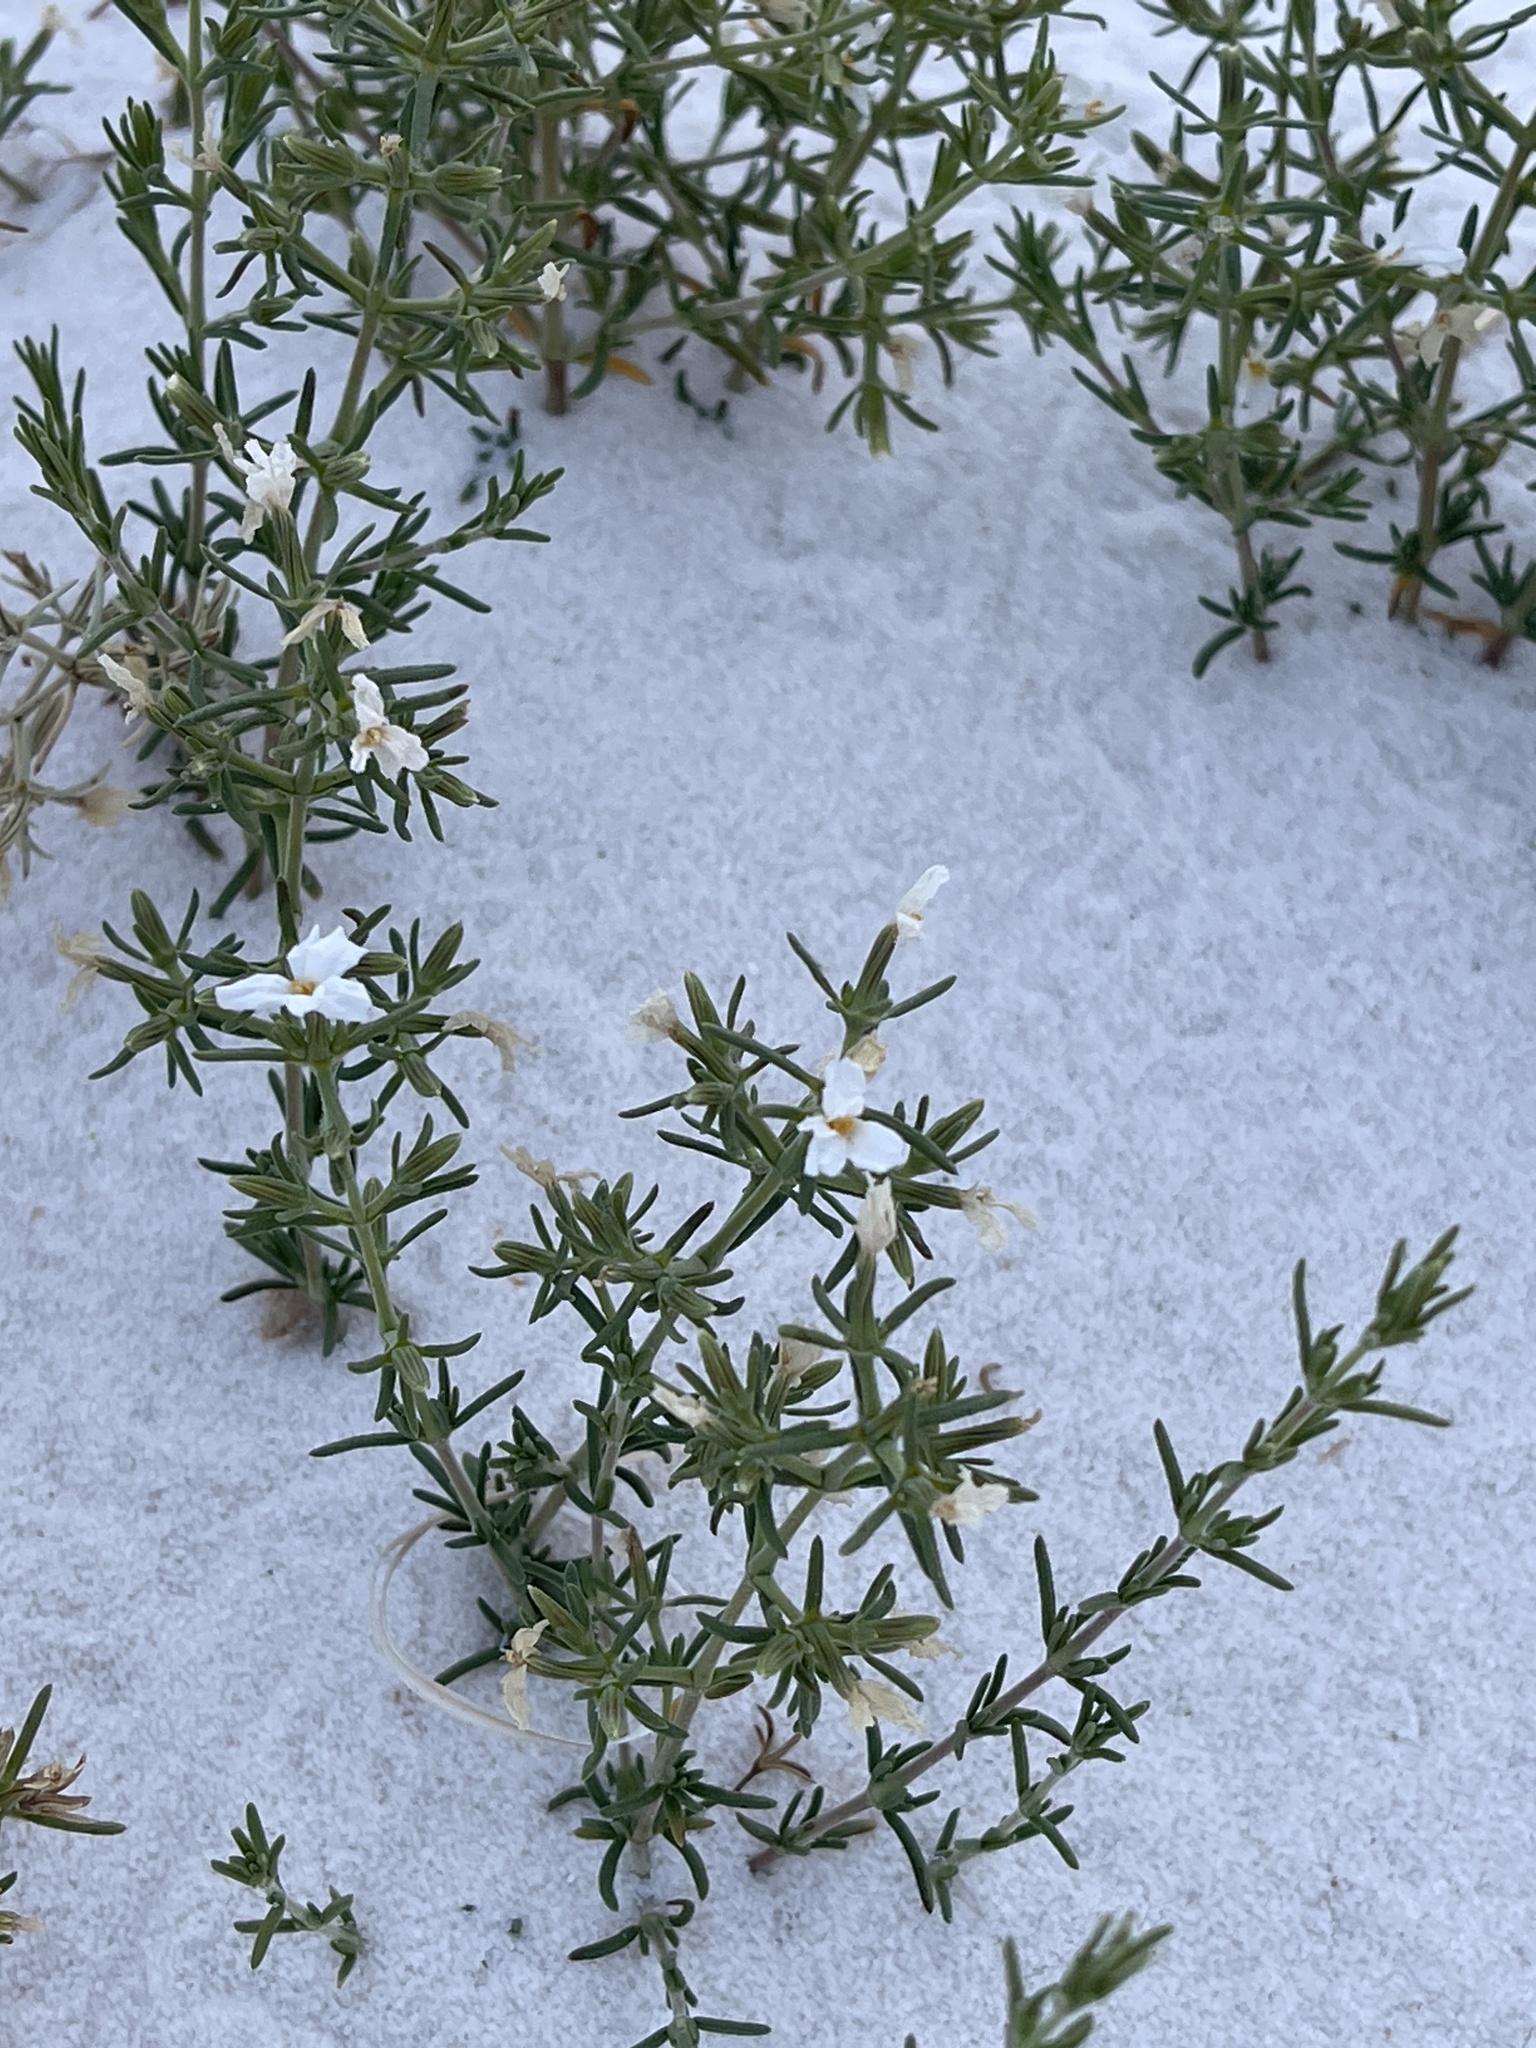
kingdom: Plantae
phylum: Tracheophyta
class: Magnoliopsida
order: Caryophyllales
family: Frankeniaceae
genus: Frankenia
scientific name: Frankenia jamesii
